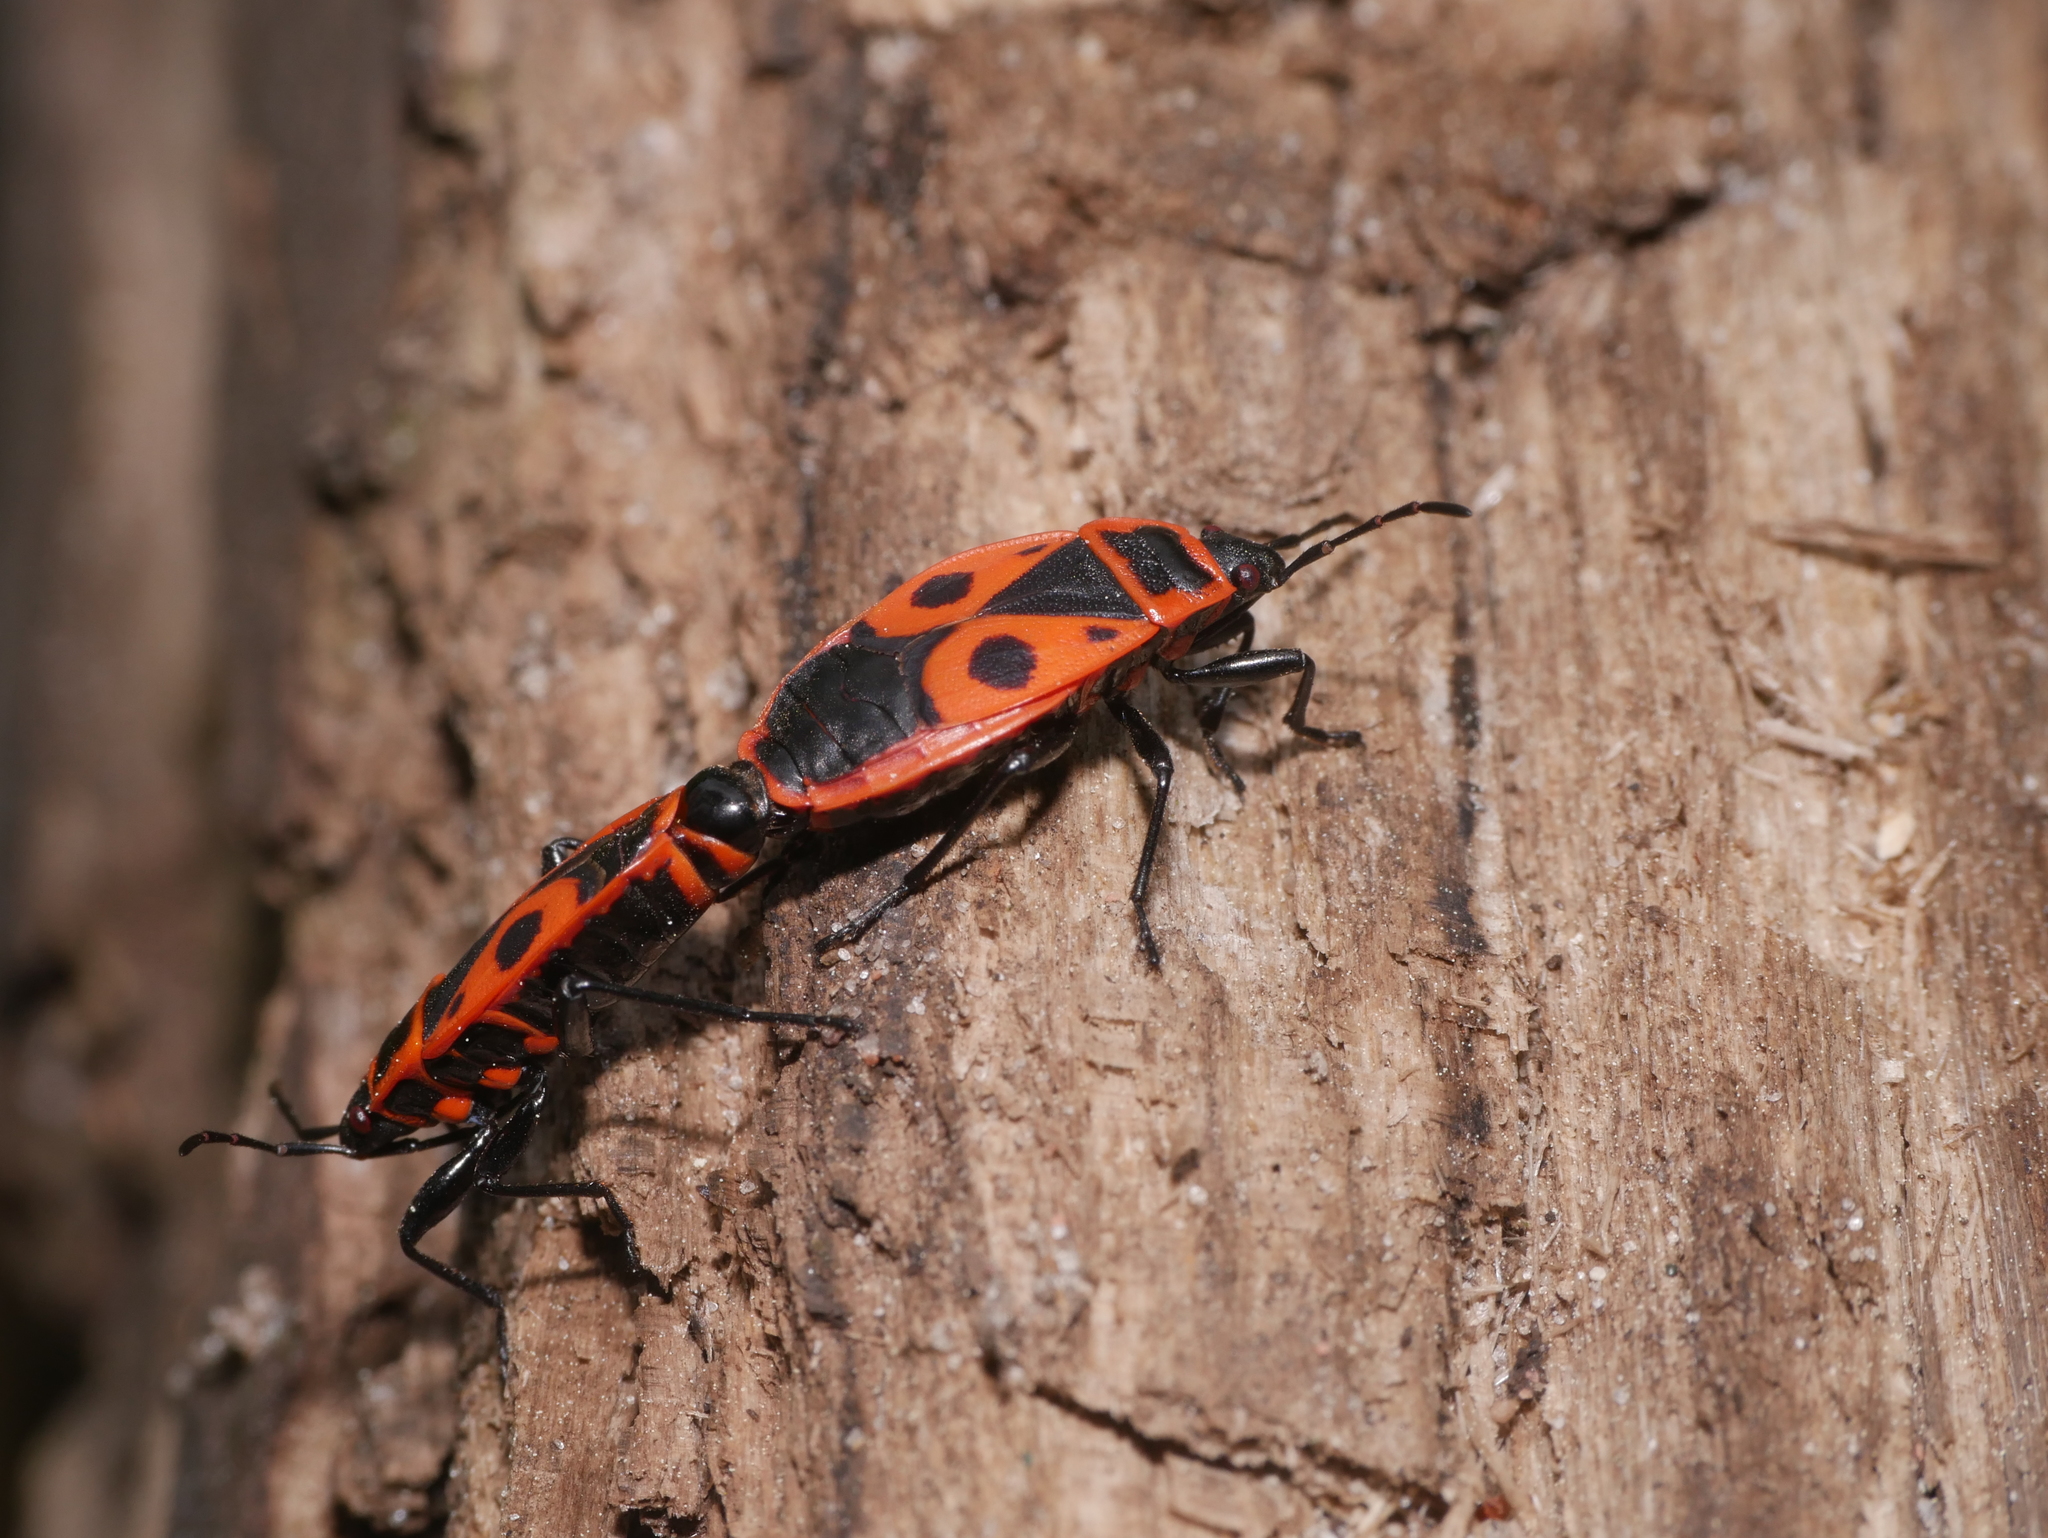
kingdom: Animalia
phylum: Arthropoda
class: Insecta
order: Hemiptera
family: Pyrrhocoridae
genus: Pyrrhocoris
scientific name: Pyrrhocoris apterus
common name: Firebug
